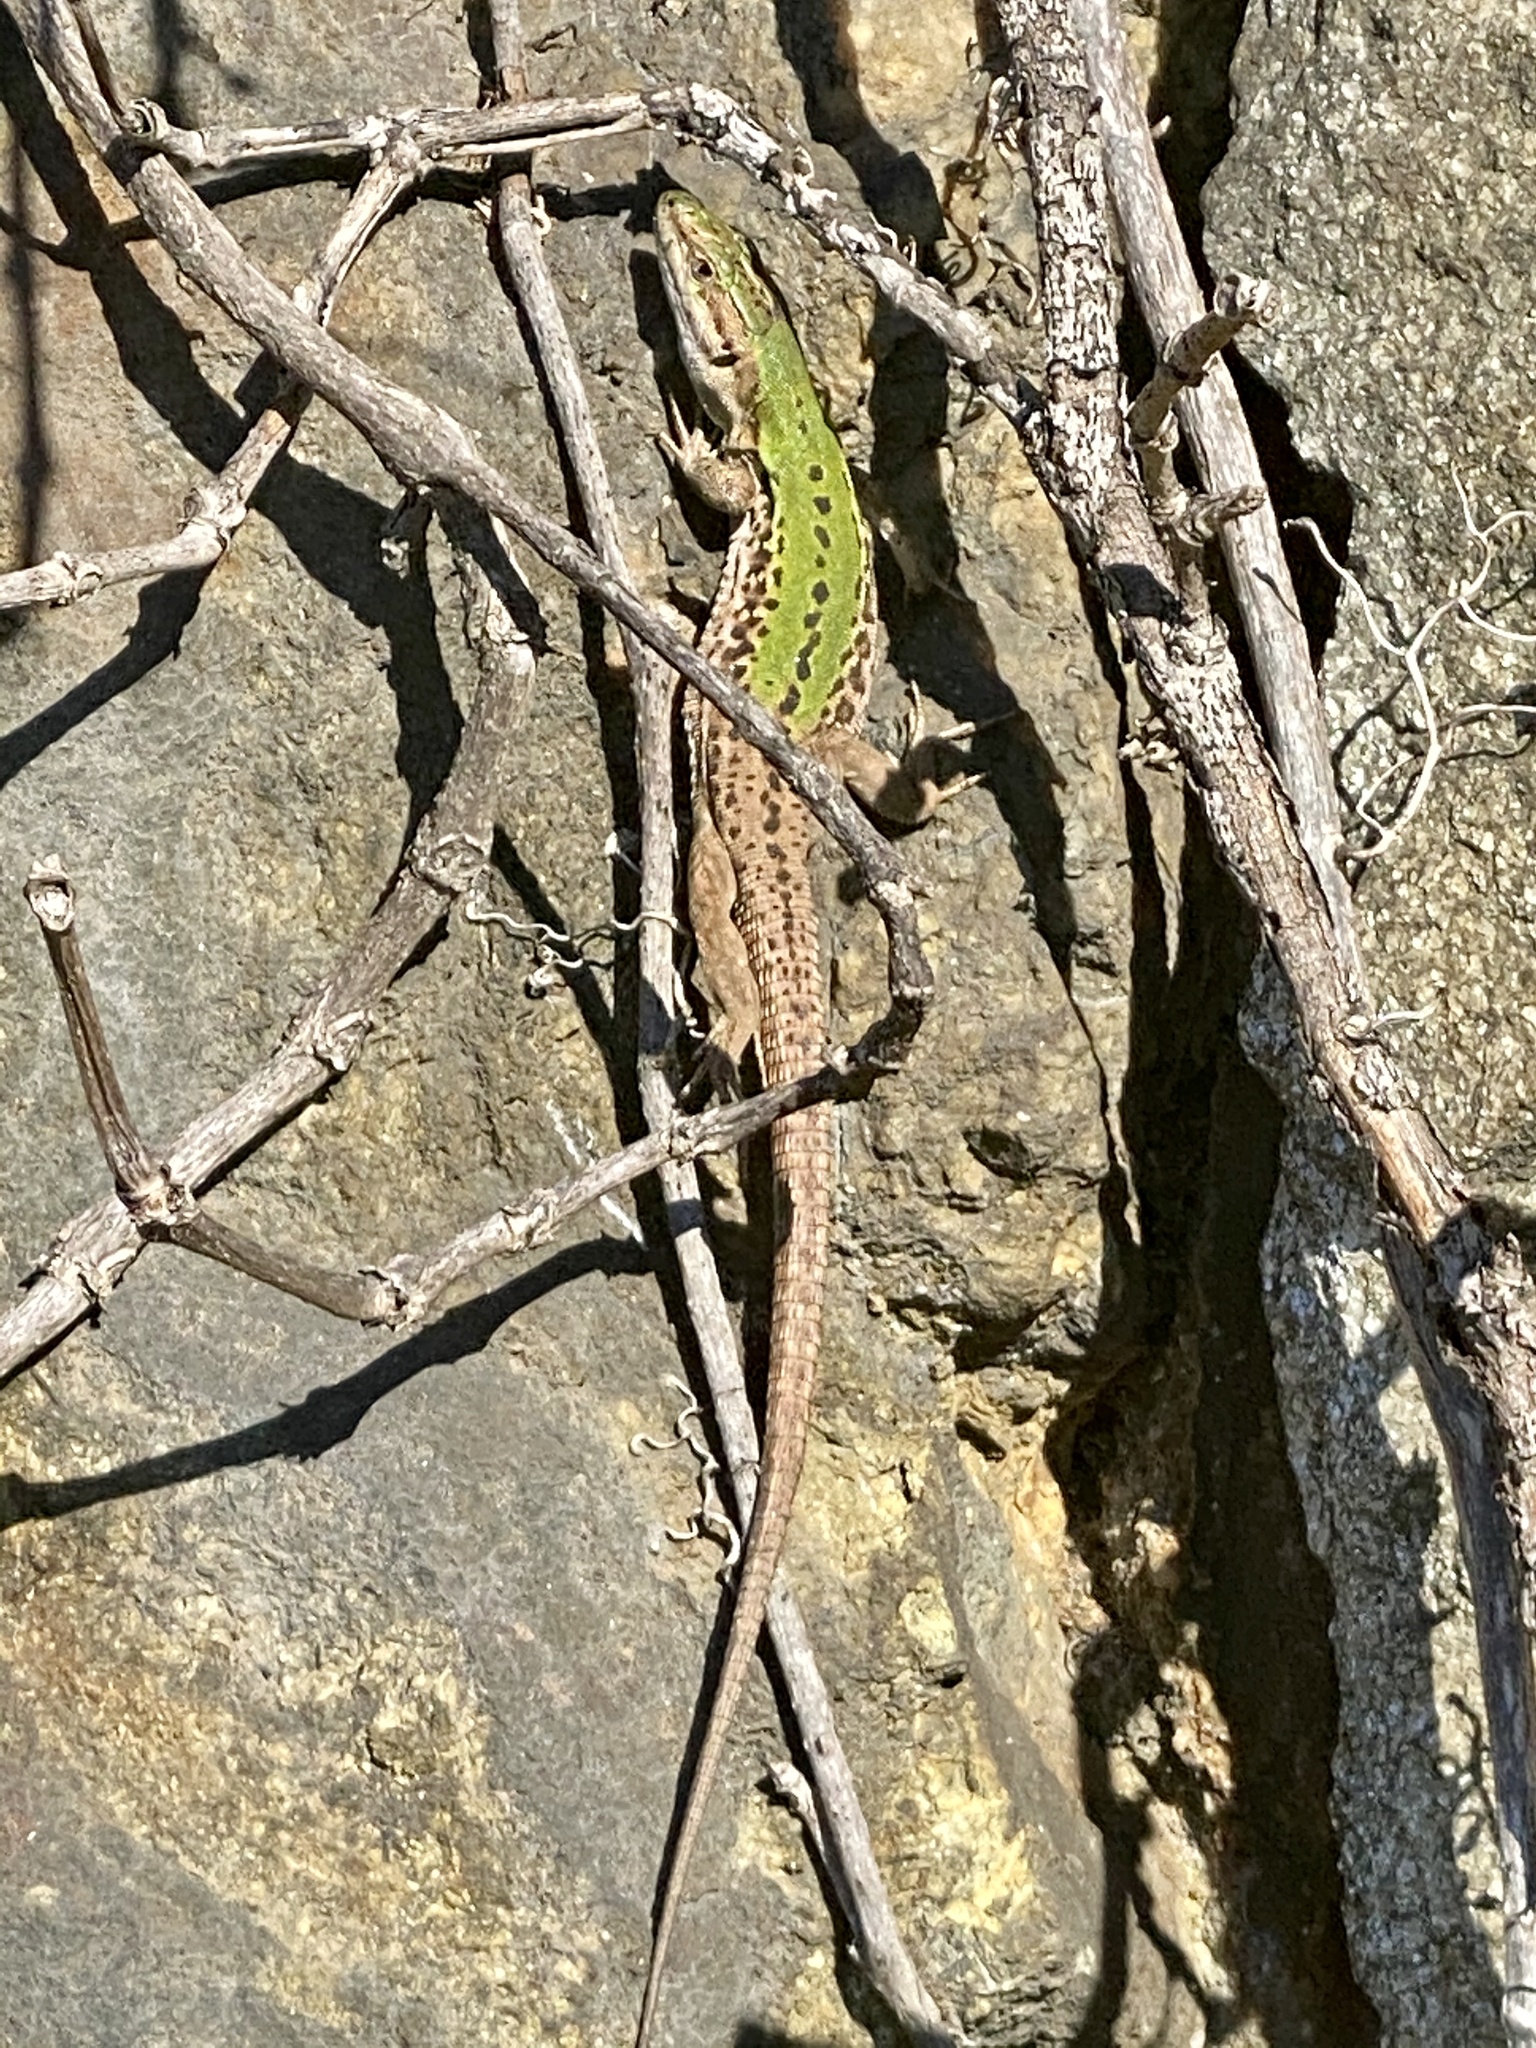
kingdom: Animalia
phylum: Chordata
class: Squamata
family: Lacertidae
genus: Podarcis
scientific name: Podarcis siculus
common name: Italian wall lizard
